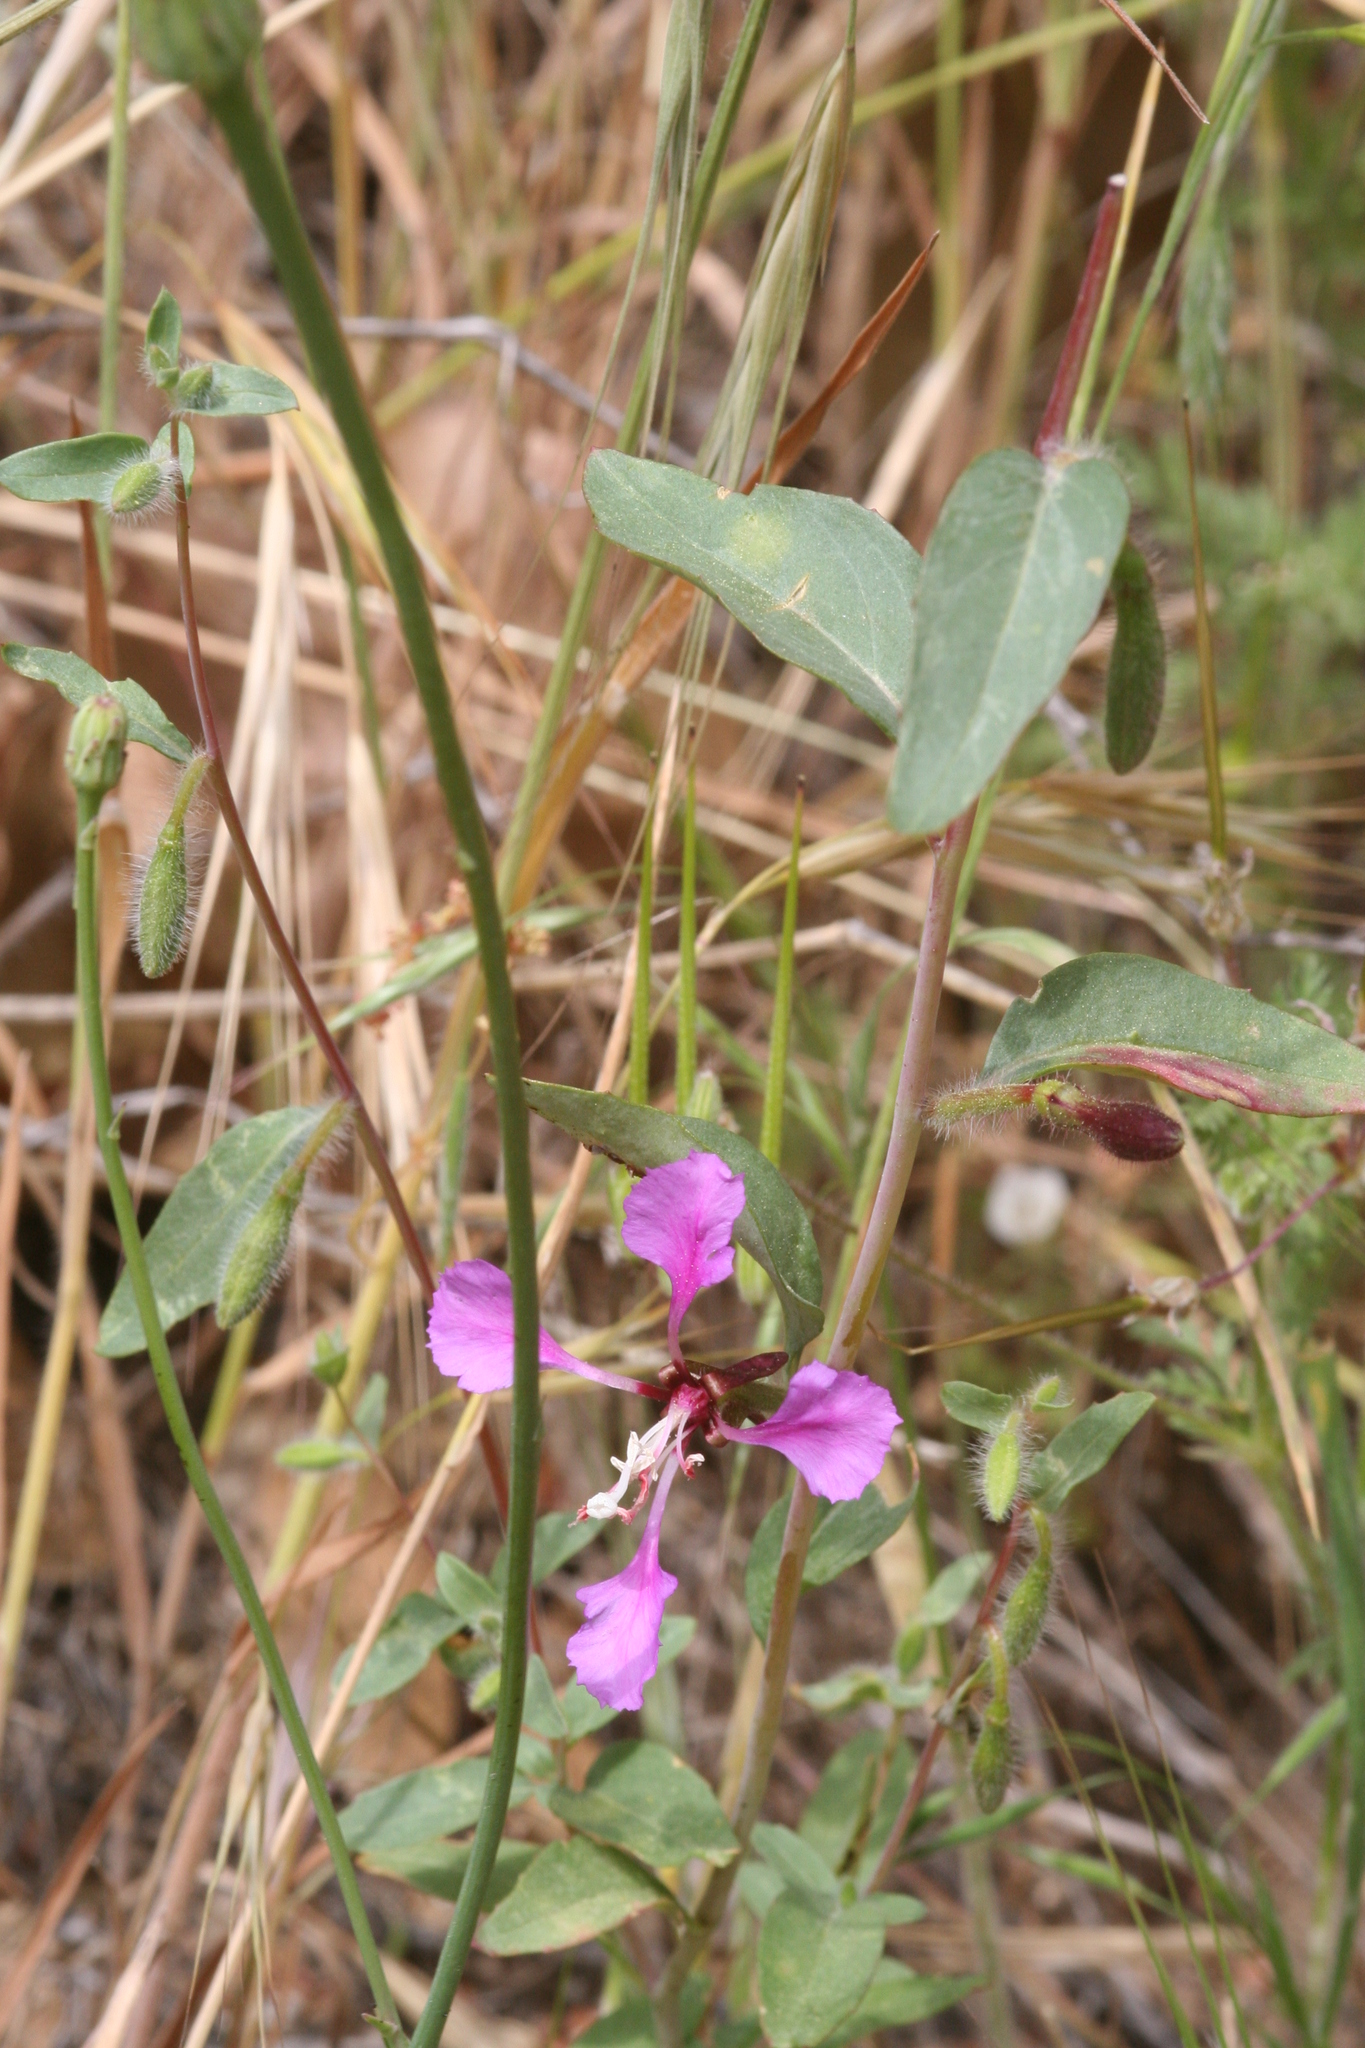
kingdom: Plantae
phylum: Tracheophyta
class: Magnoliopsida
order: Myrtales
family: Onagraceae
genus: Clarkia
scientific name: Clarkia unguiculata
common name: Clarkia
